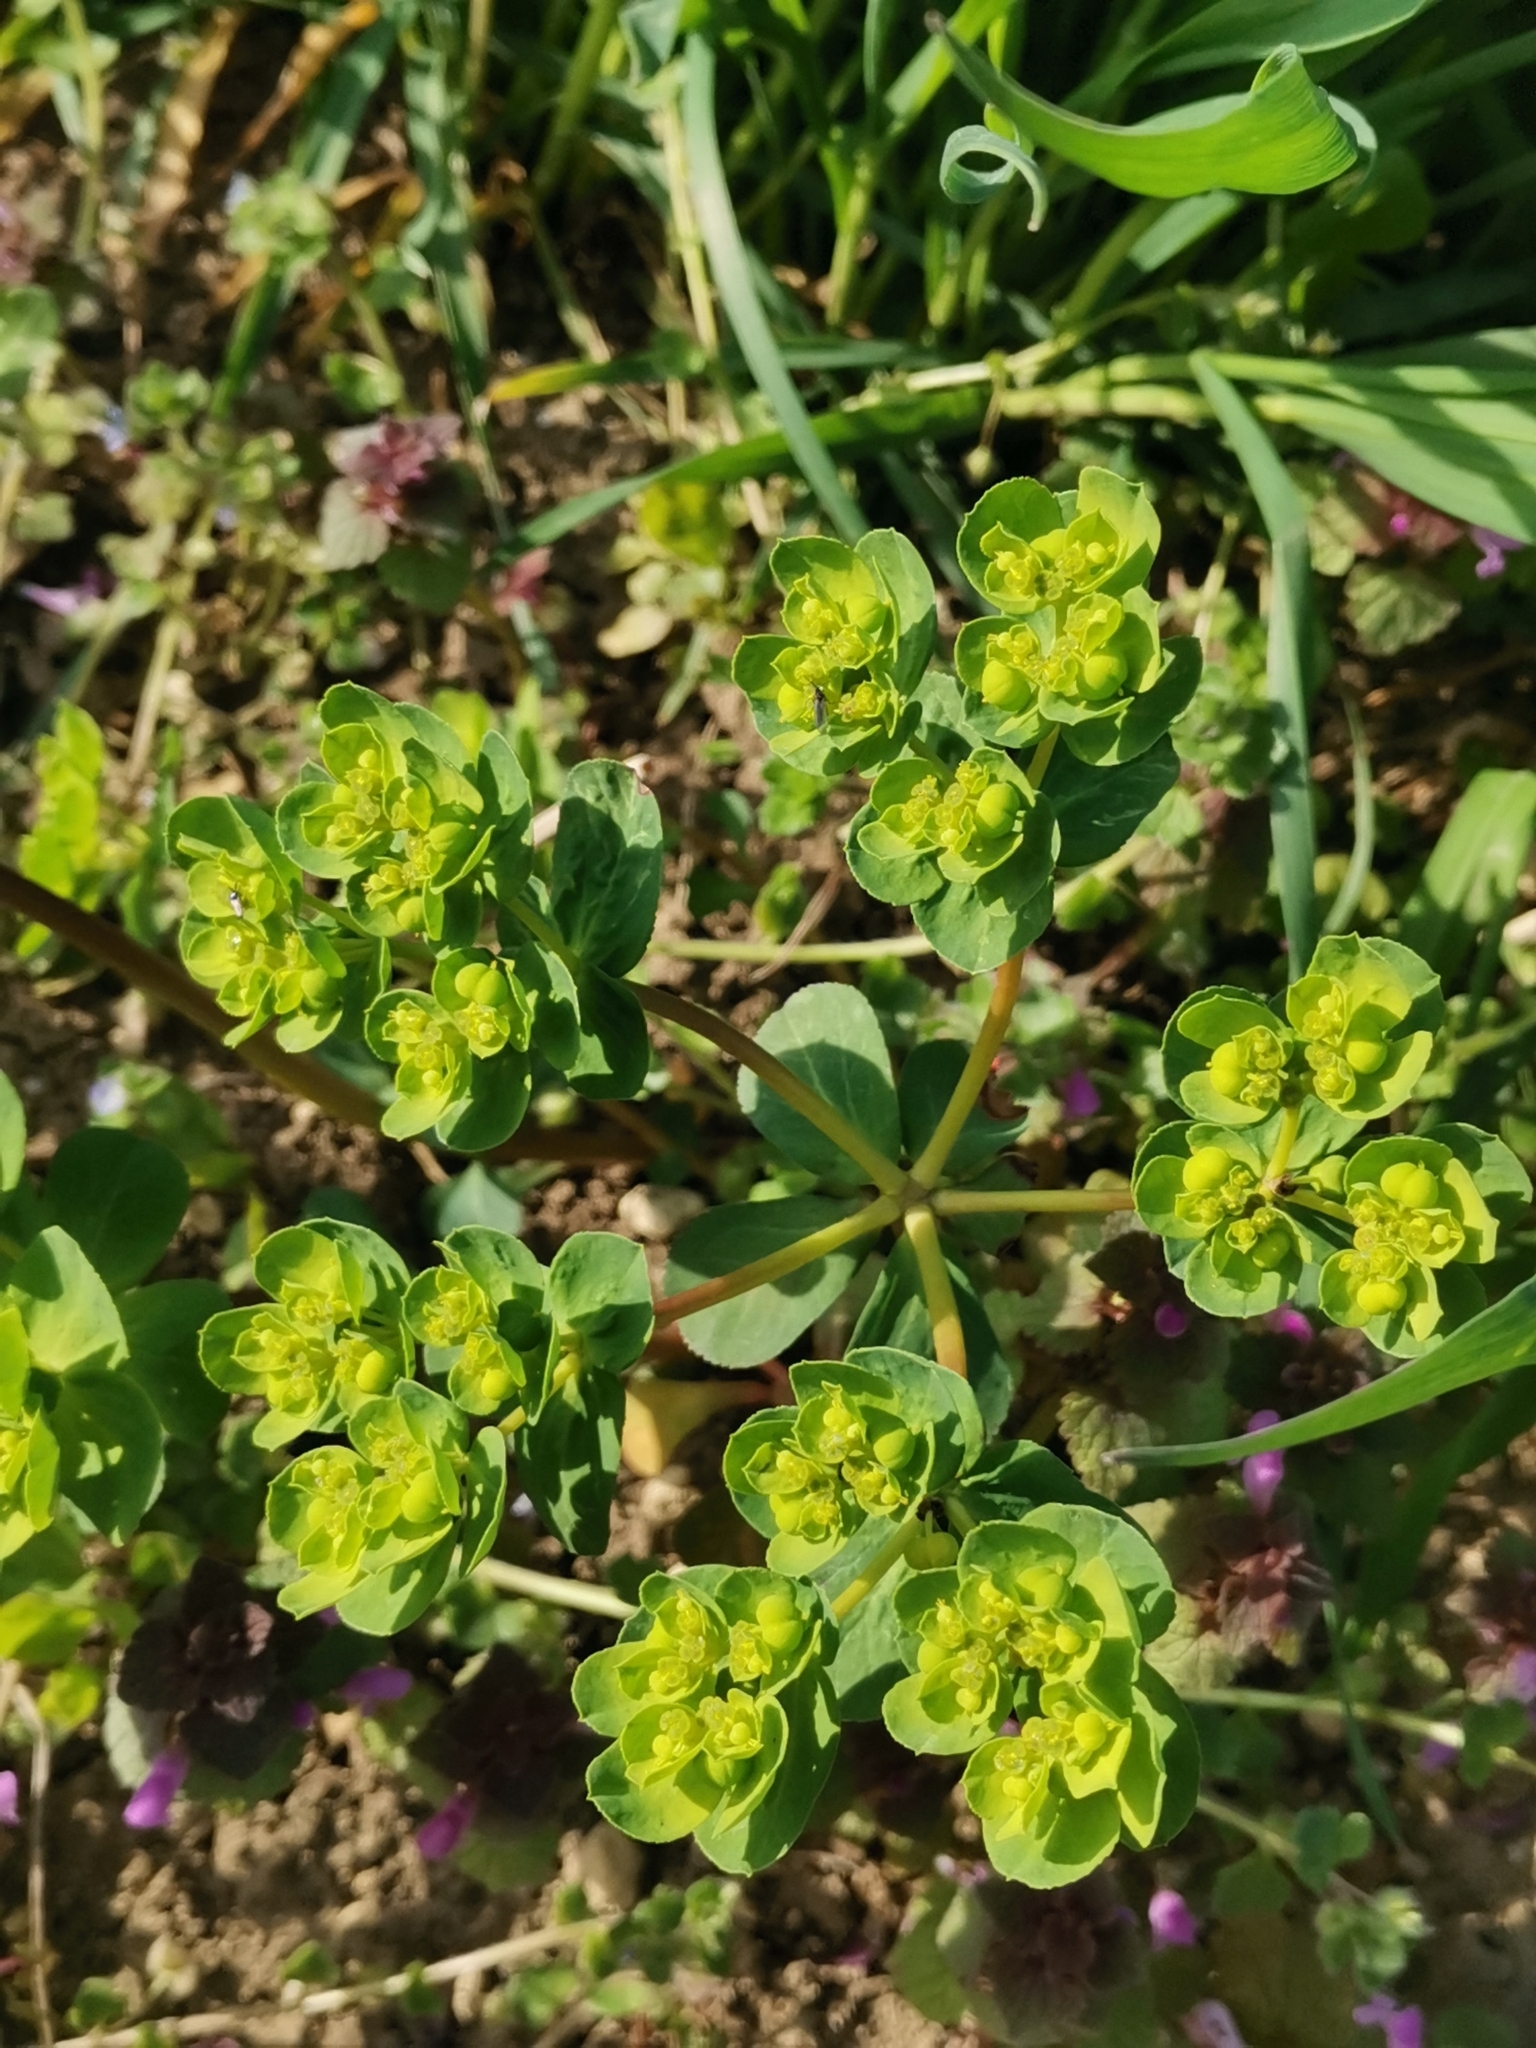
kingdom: Plantae
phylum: Tracheophyta
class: Magnoliopsida
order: Malpighiales
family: Euphorbiaceae
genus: Euphorbia
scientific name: Euphorbia helioscopia
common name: Sun spurge
